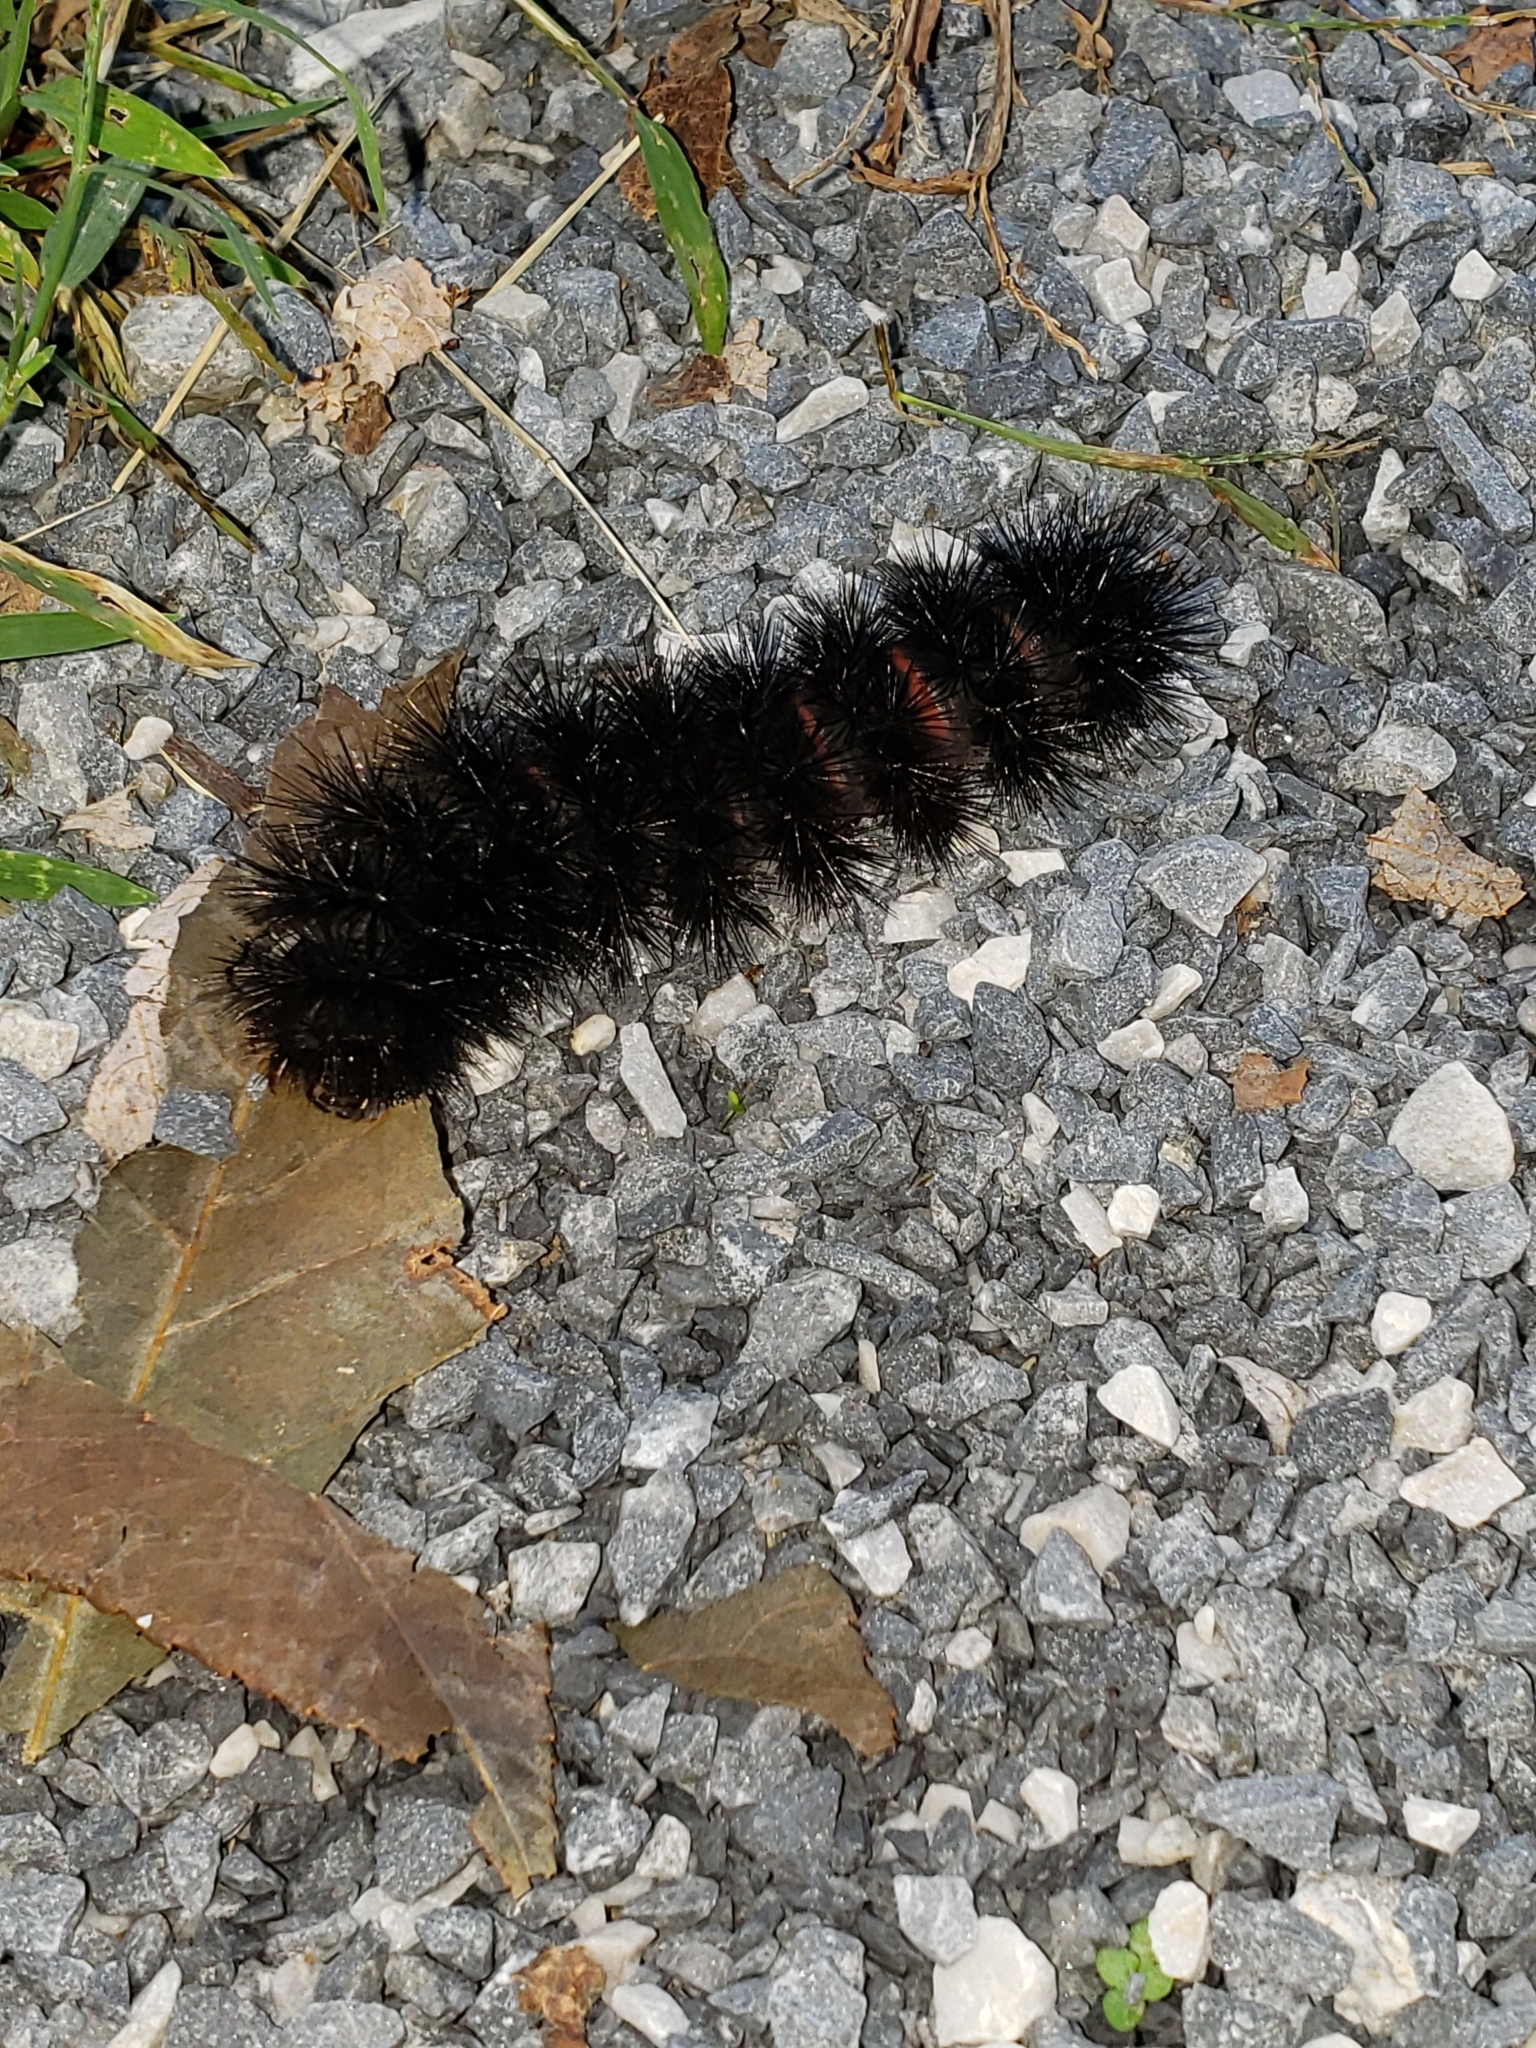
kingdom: Animalia
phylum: Arthropoda
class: Insecta
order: Lepidoptera
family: Erebidae
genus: Hypercompe
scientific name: Hypercompe scribonia
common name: Giant leopard moth
